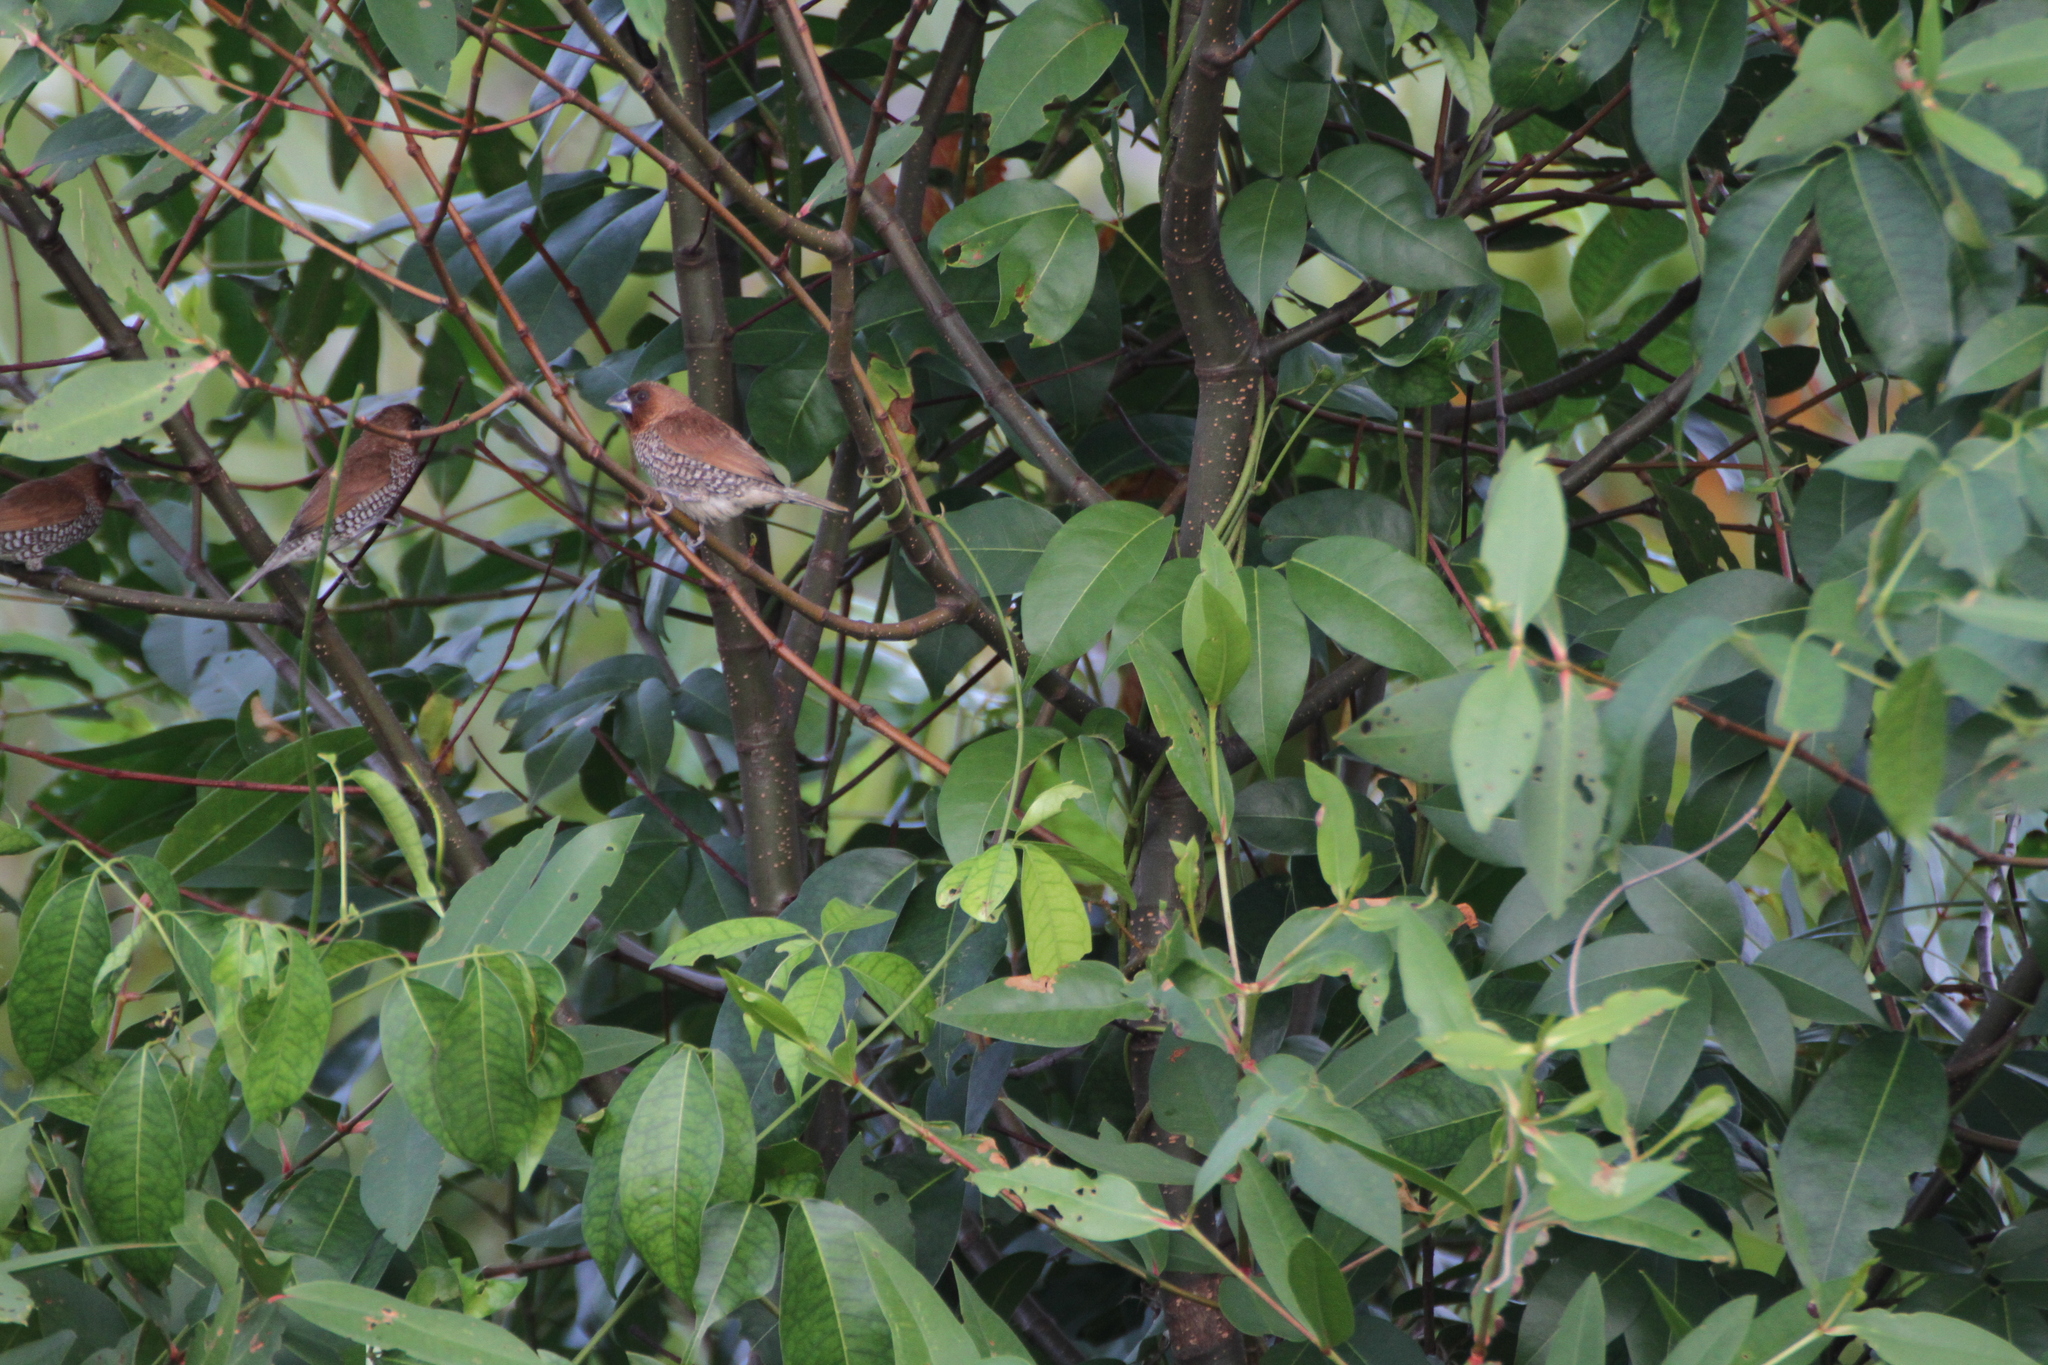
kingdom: Animalia
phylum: Chordata
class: Aves
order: Passeriformes
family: Estrildidae
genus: Lonchura
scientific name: Lonchura punctulata
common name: Scaly-breasted munia
